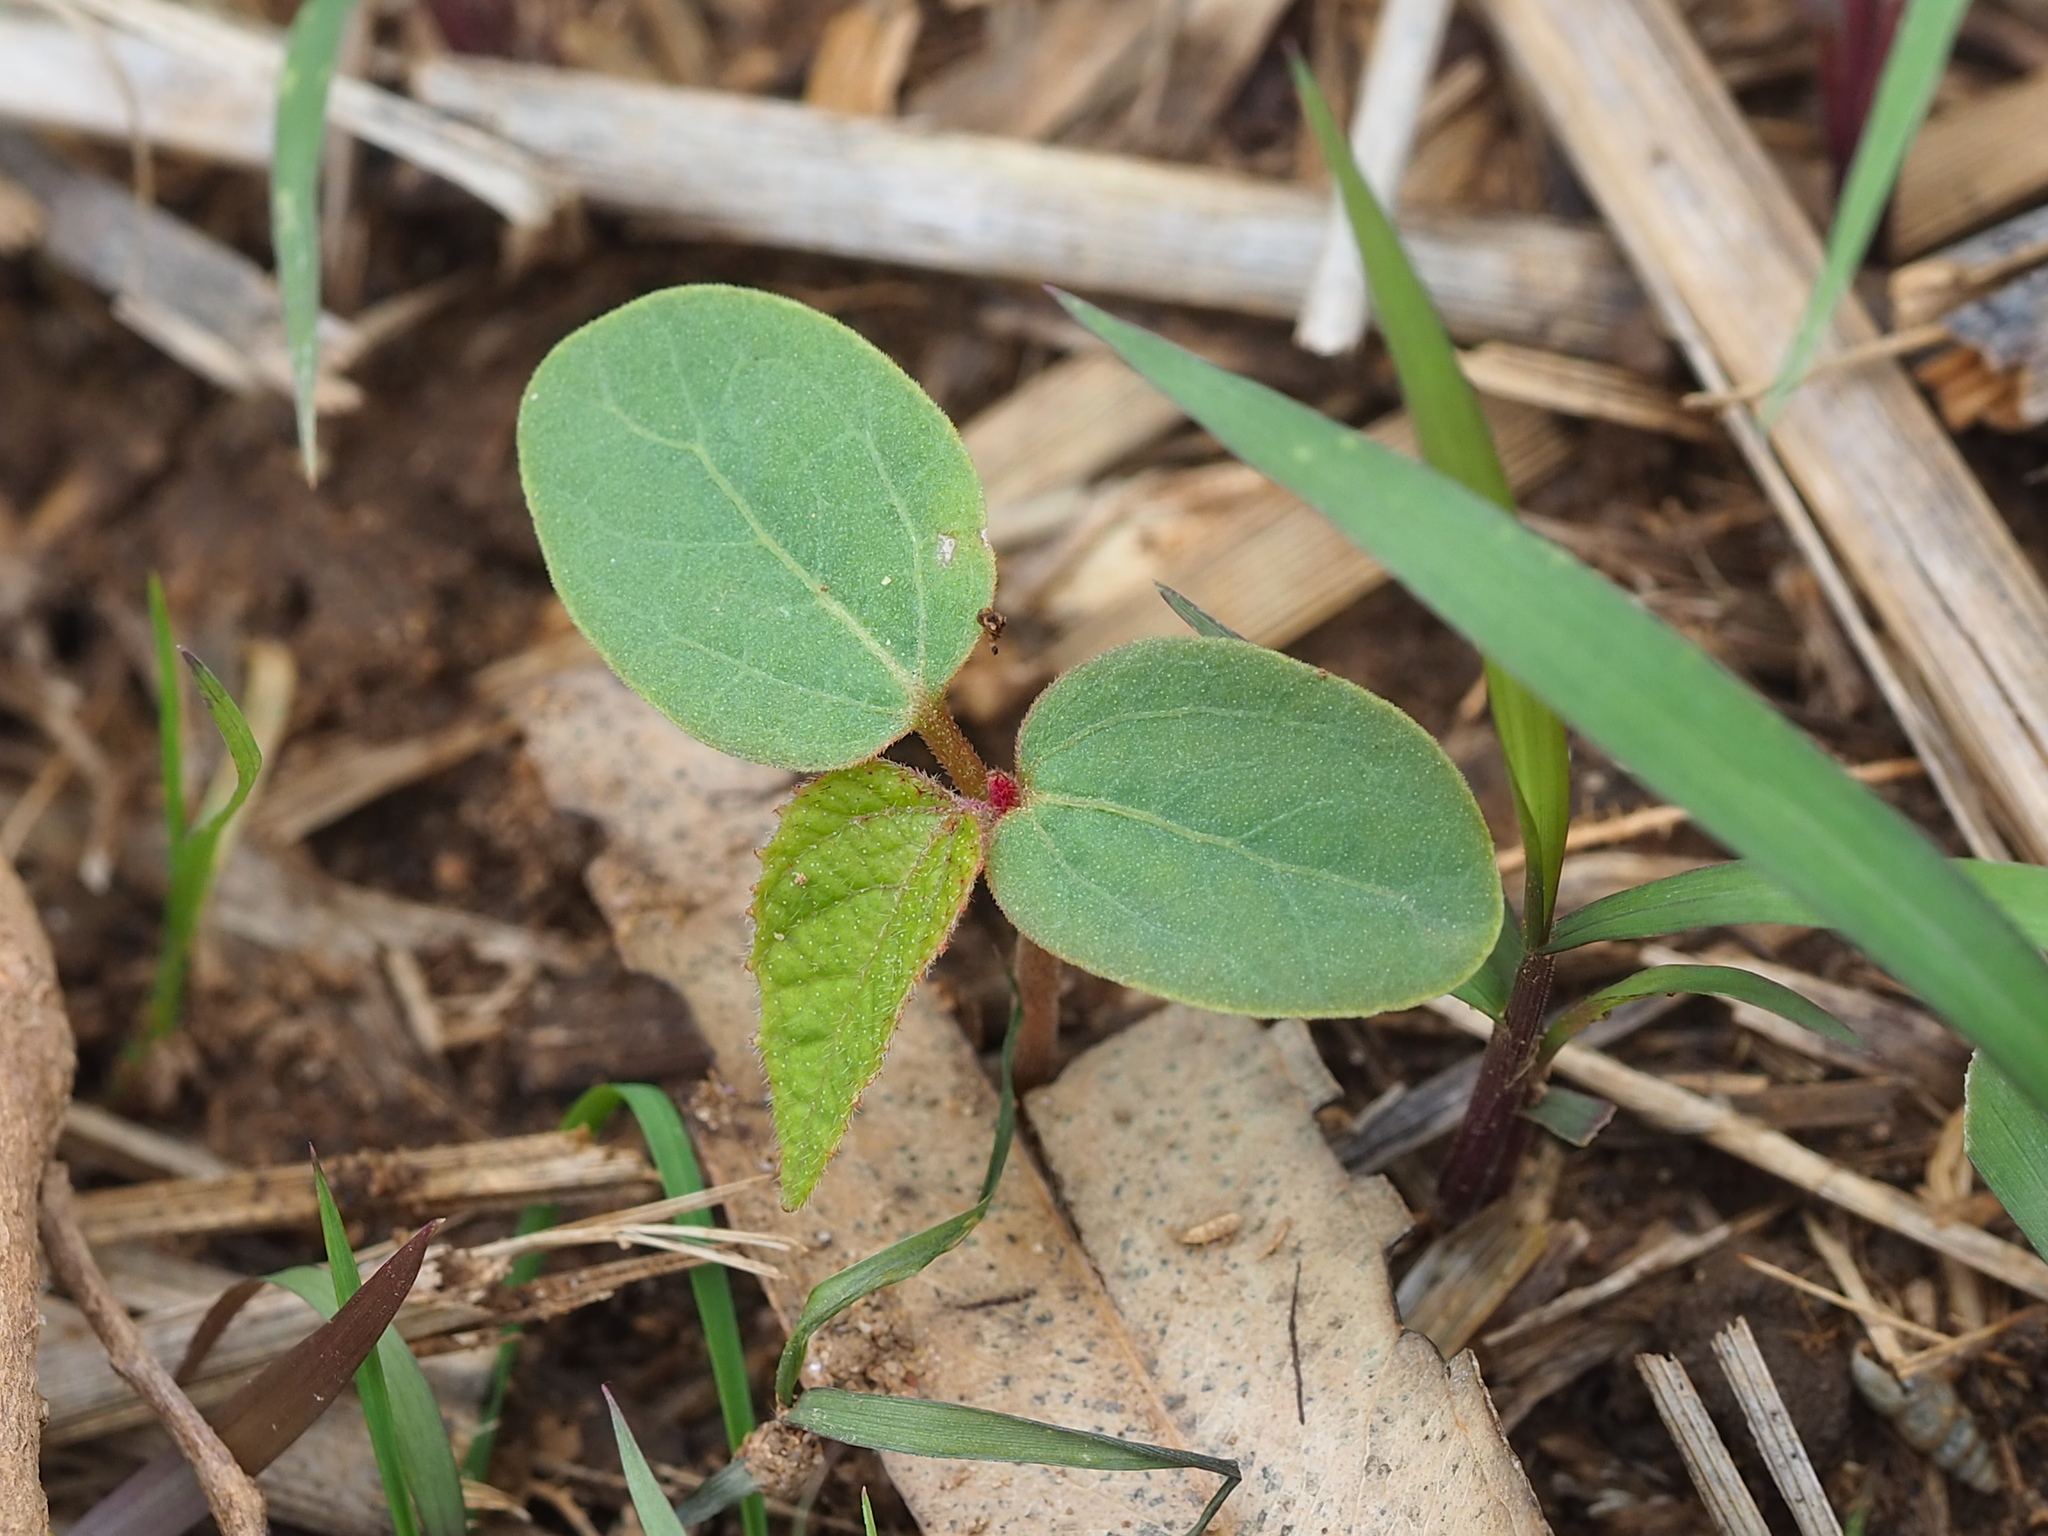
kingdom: Plantae
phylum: Tracheophyta
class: Magnoliopsida
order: Malpighiales
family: Euphorbiaceae
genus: Macaranga
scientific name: Macaranga tanarius
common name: Parasol leaf tree
